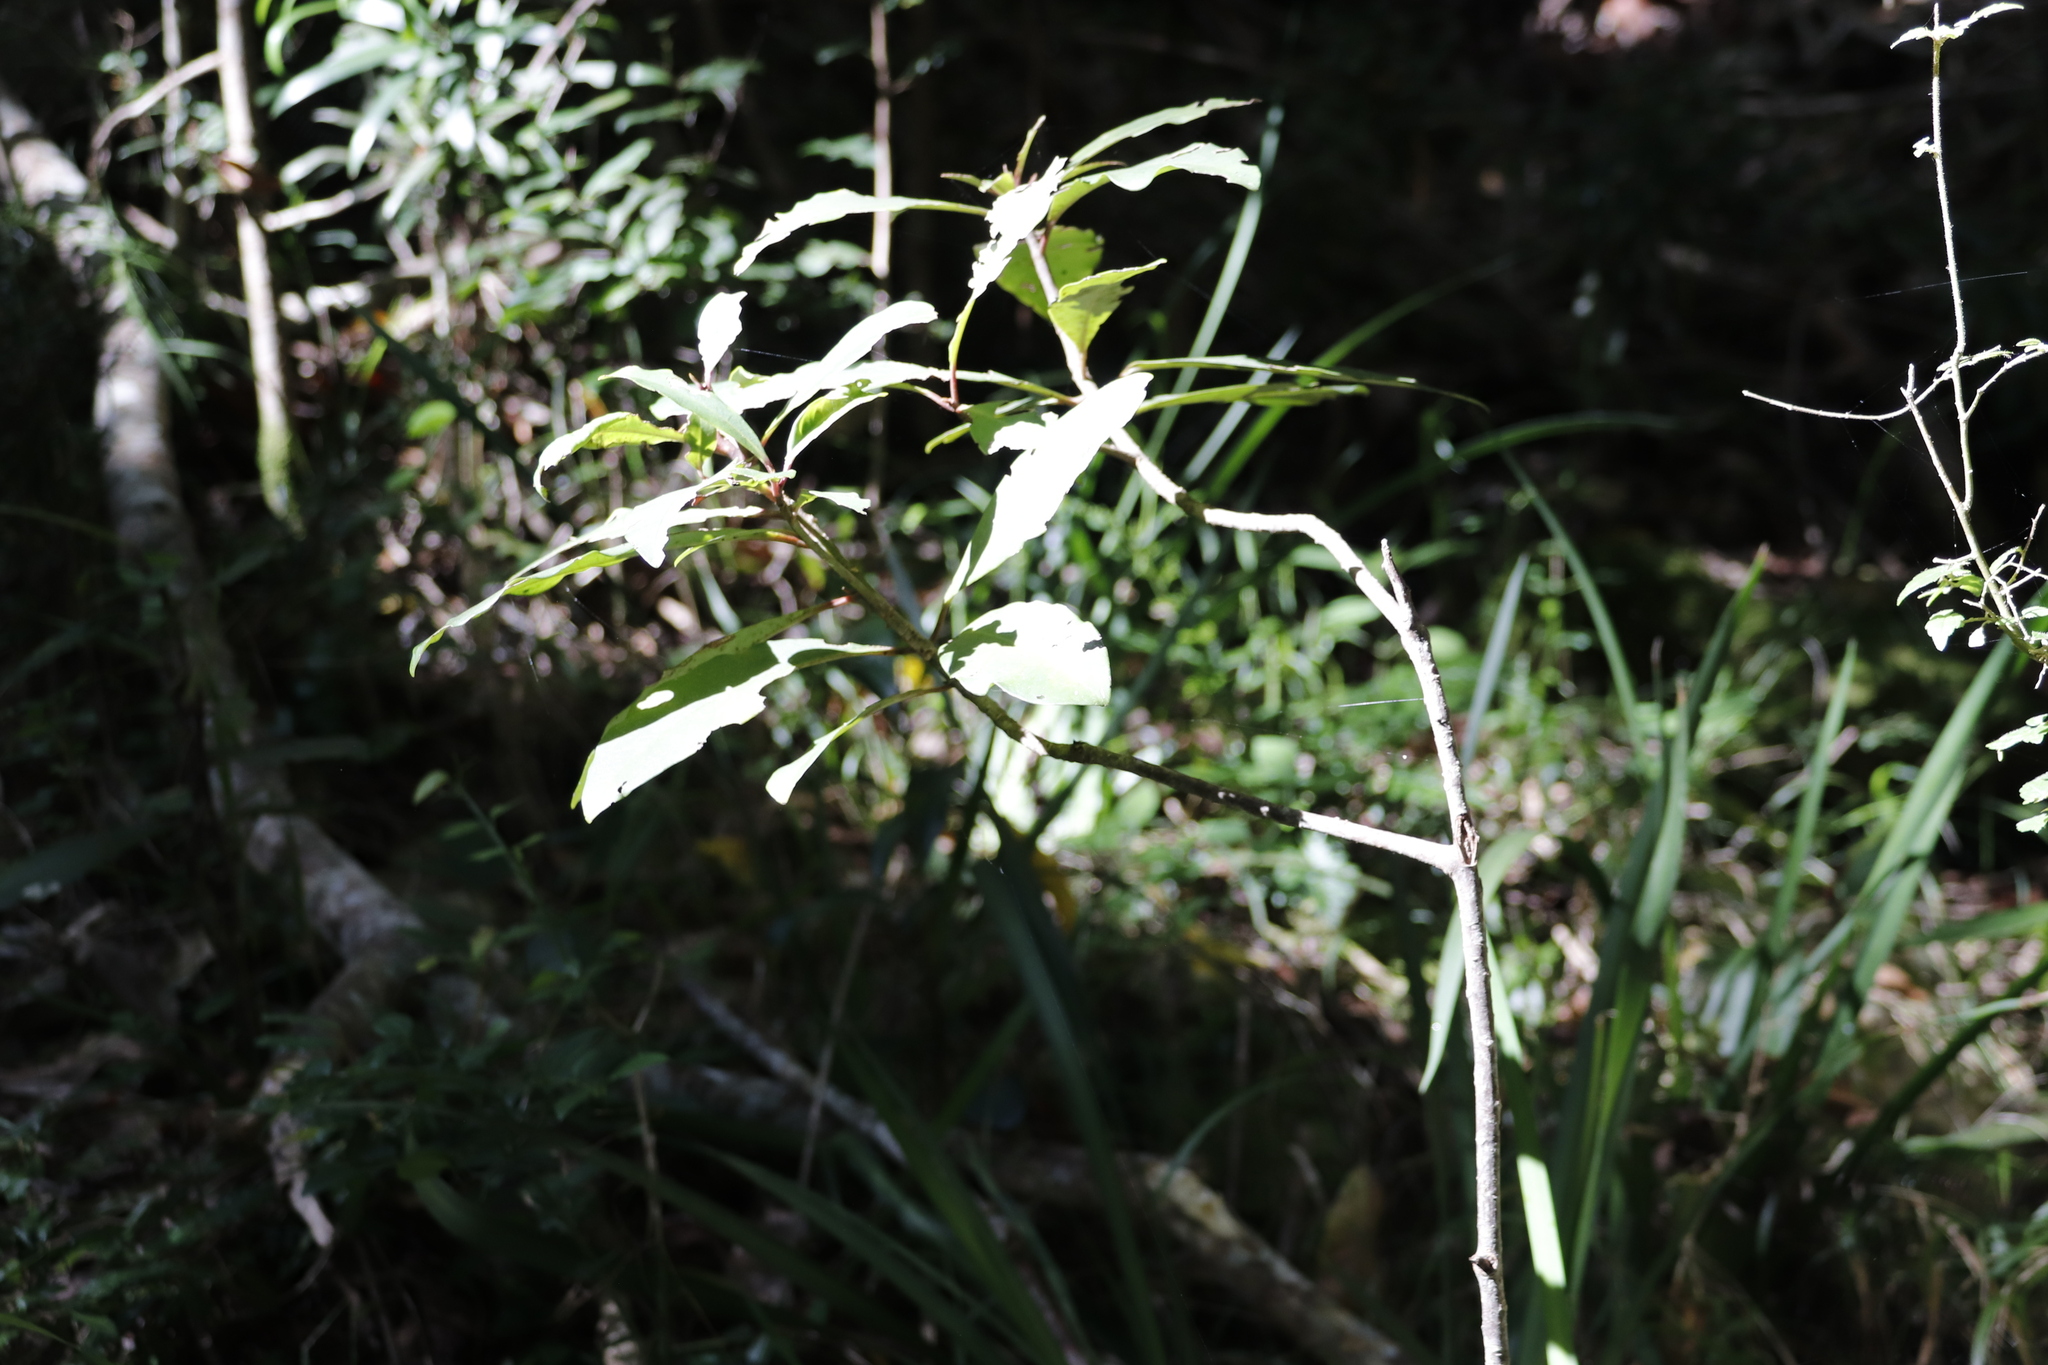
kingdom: Plantae
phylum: Tracheophyta
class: Magnoliopsida
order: Aquifoliales
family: Aquifoliaceae
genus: Ilex
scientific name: Ilex mitis
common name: African holly
